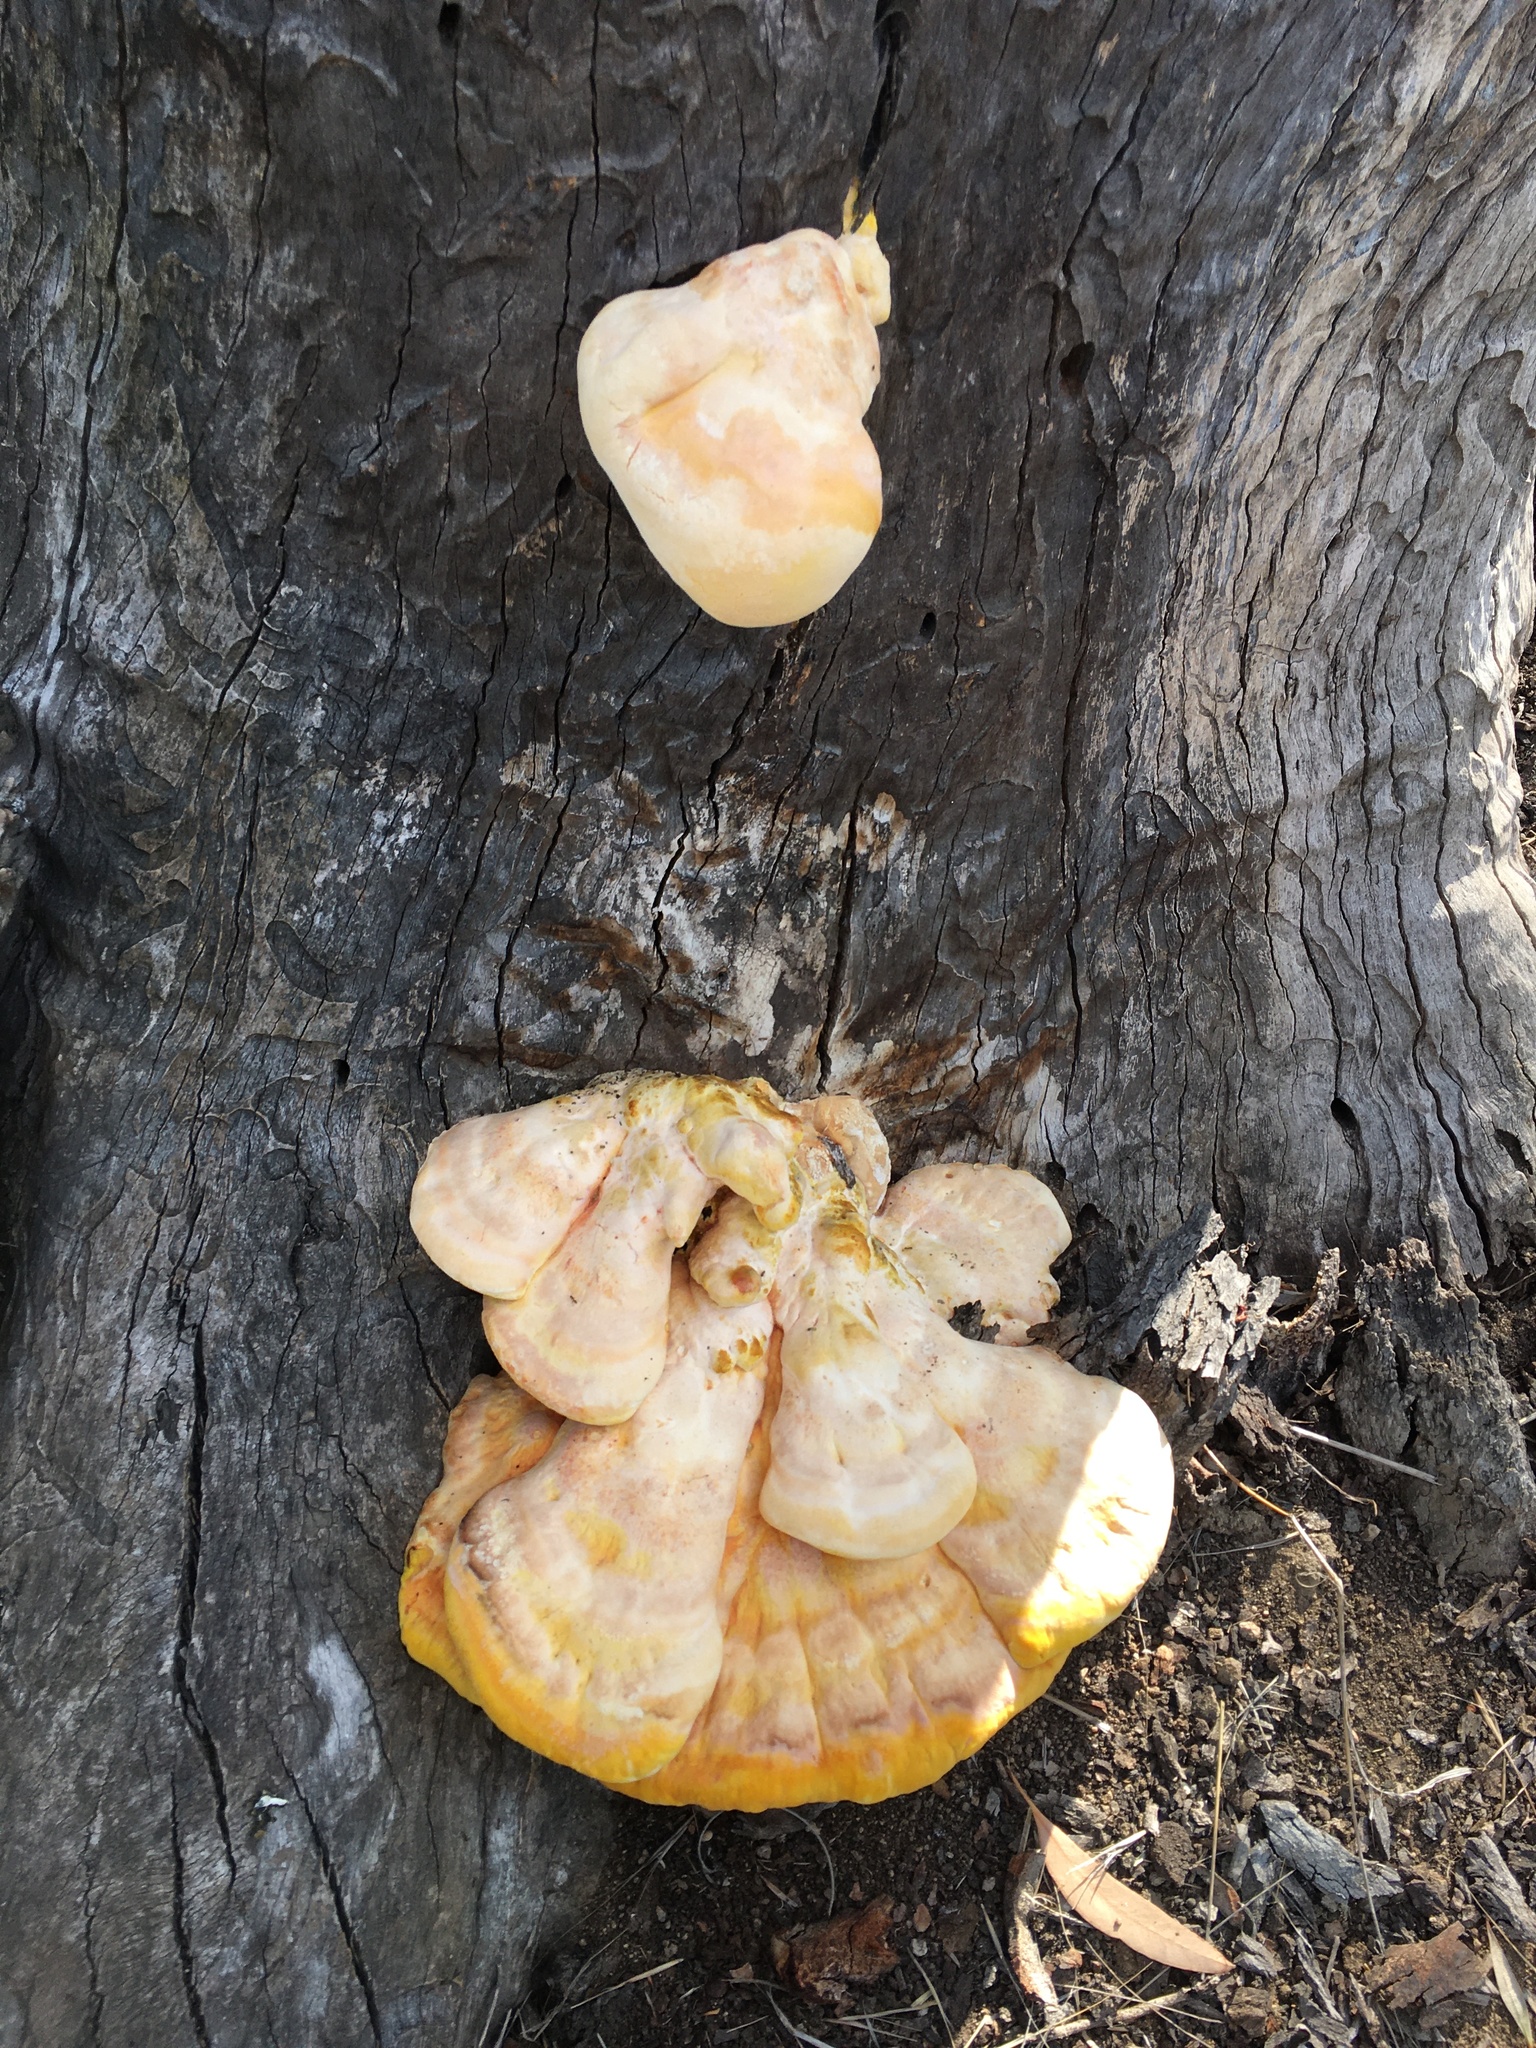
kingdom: Fungi
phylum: Basidiomycota
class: Agaricomycetes
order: Polyporales
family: Laetiporaceae
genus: Laetiporus
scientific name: Laetiporus gilbertsonii
